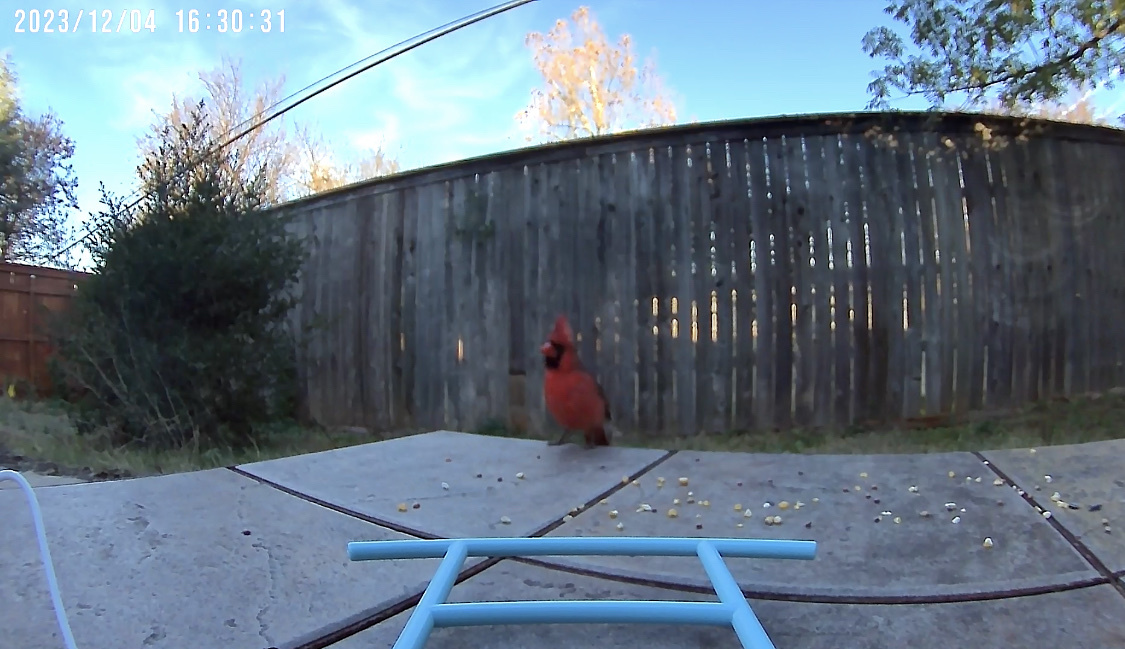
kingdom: Animalia
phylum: Chordata
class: Aves
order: Passeriformes
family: Cardinalidae
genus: Cardinalis
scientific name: Cardinalis cardinalis
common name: Northern cardinal
